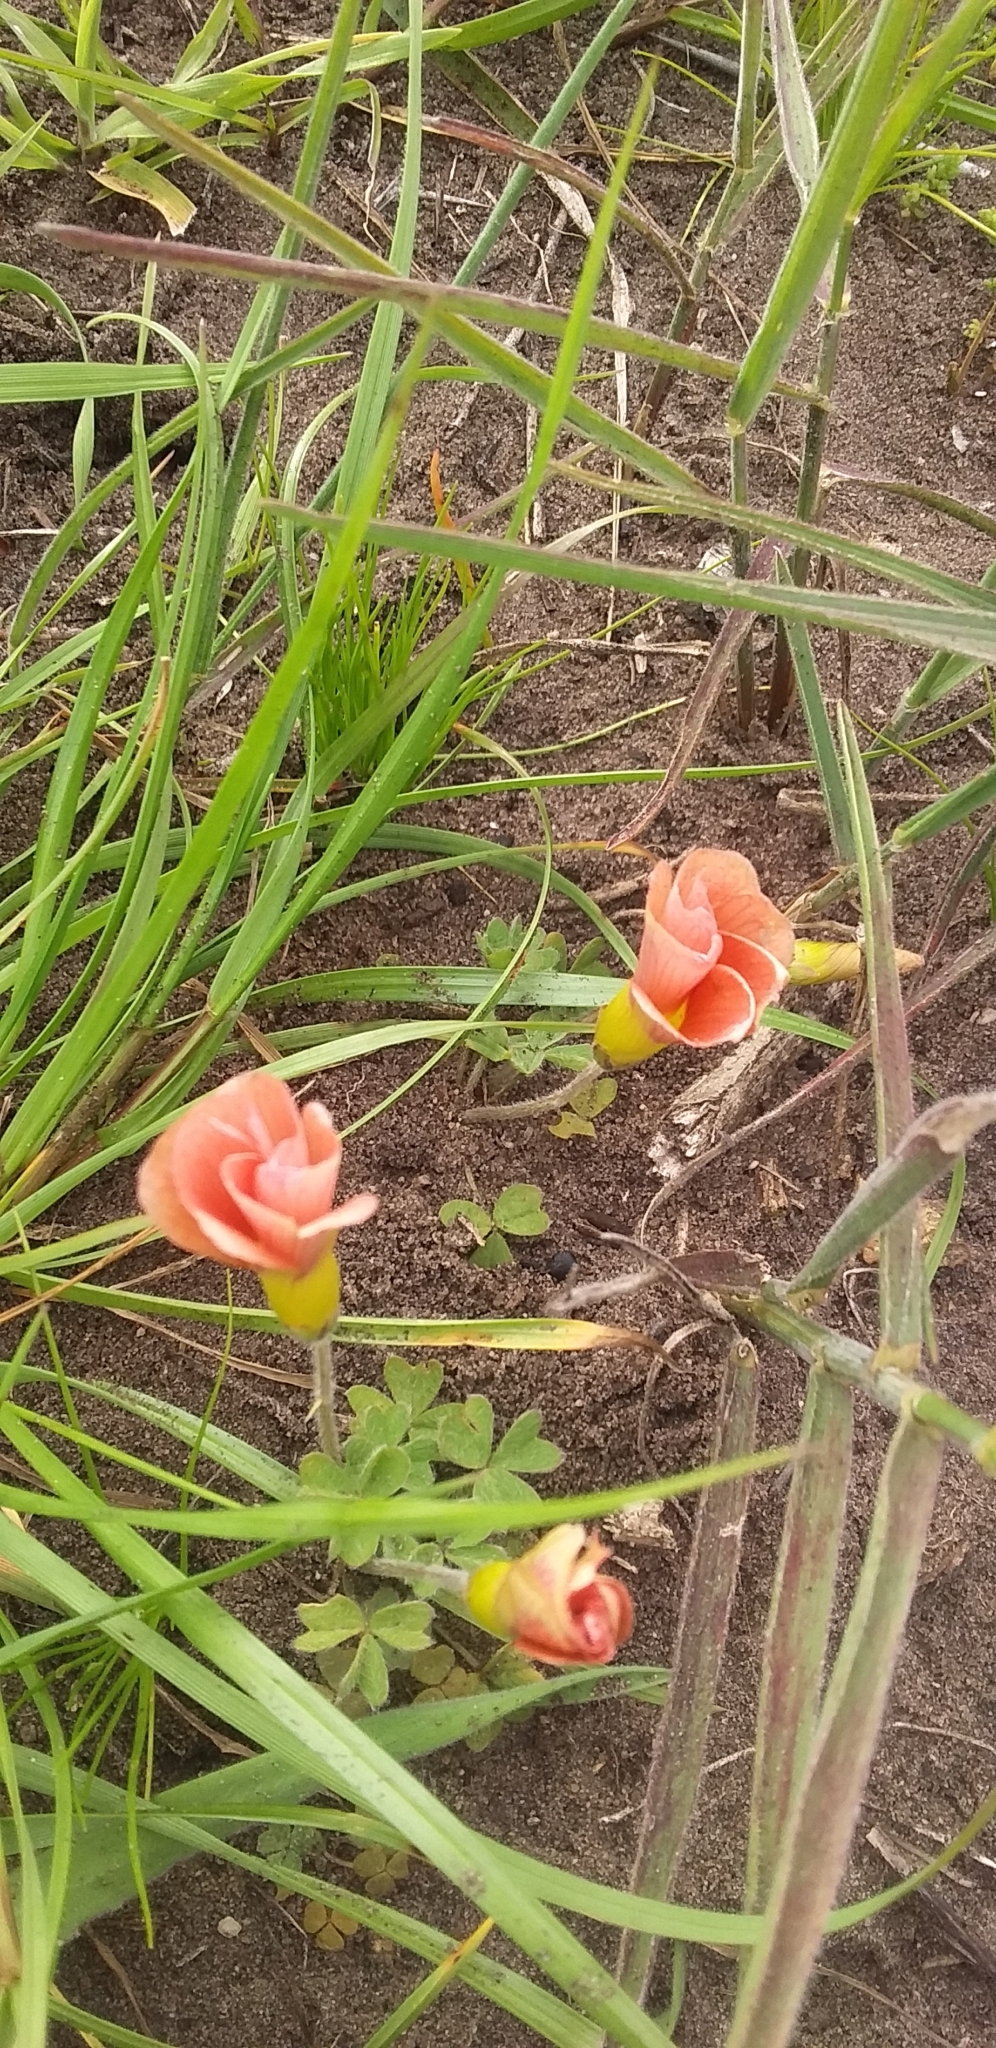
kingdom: Plantae
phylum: Tracheophyta
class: Magnoliopsida
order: Oxalidales
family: Oxalidaceae
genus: Oxalis
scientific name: Oxalis obtusa
